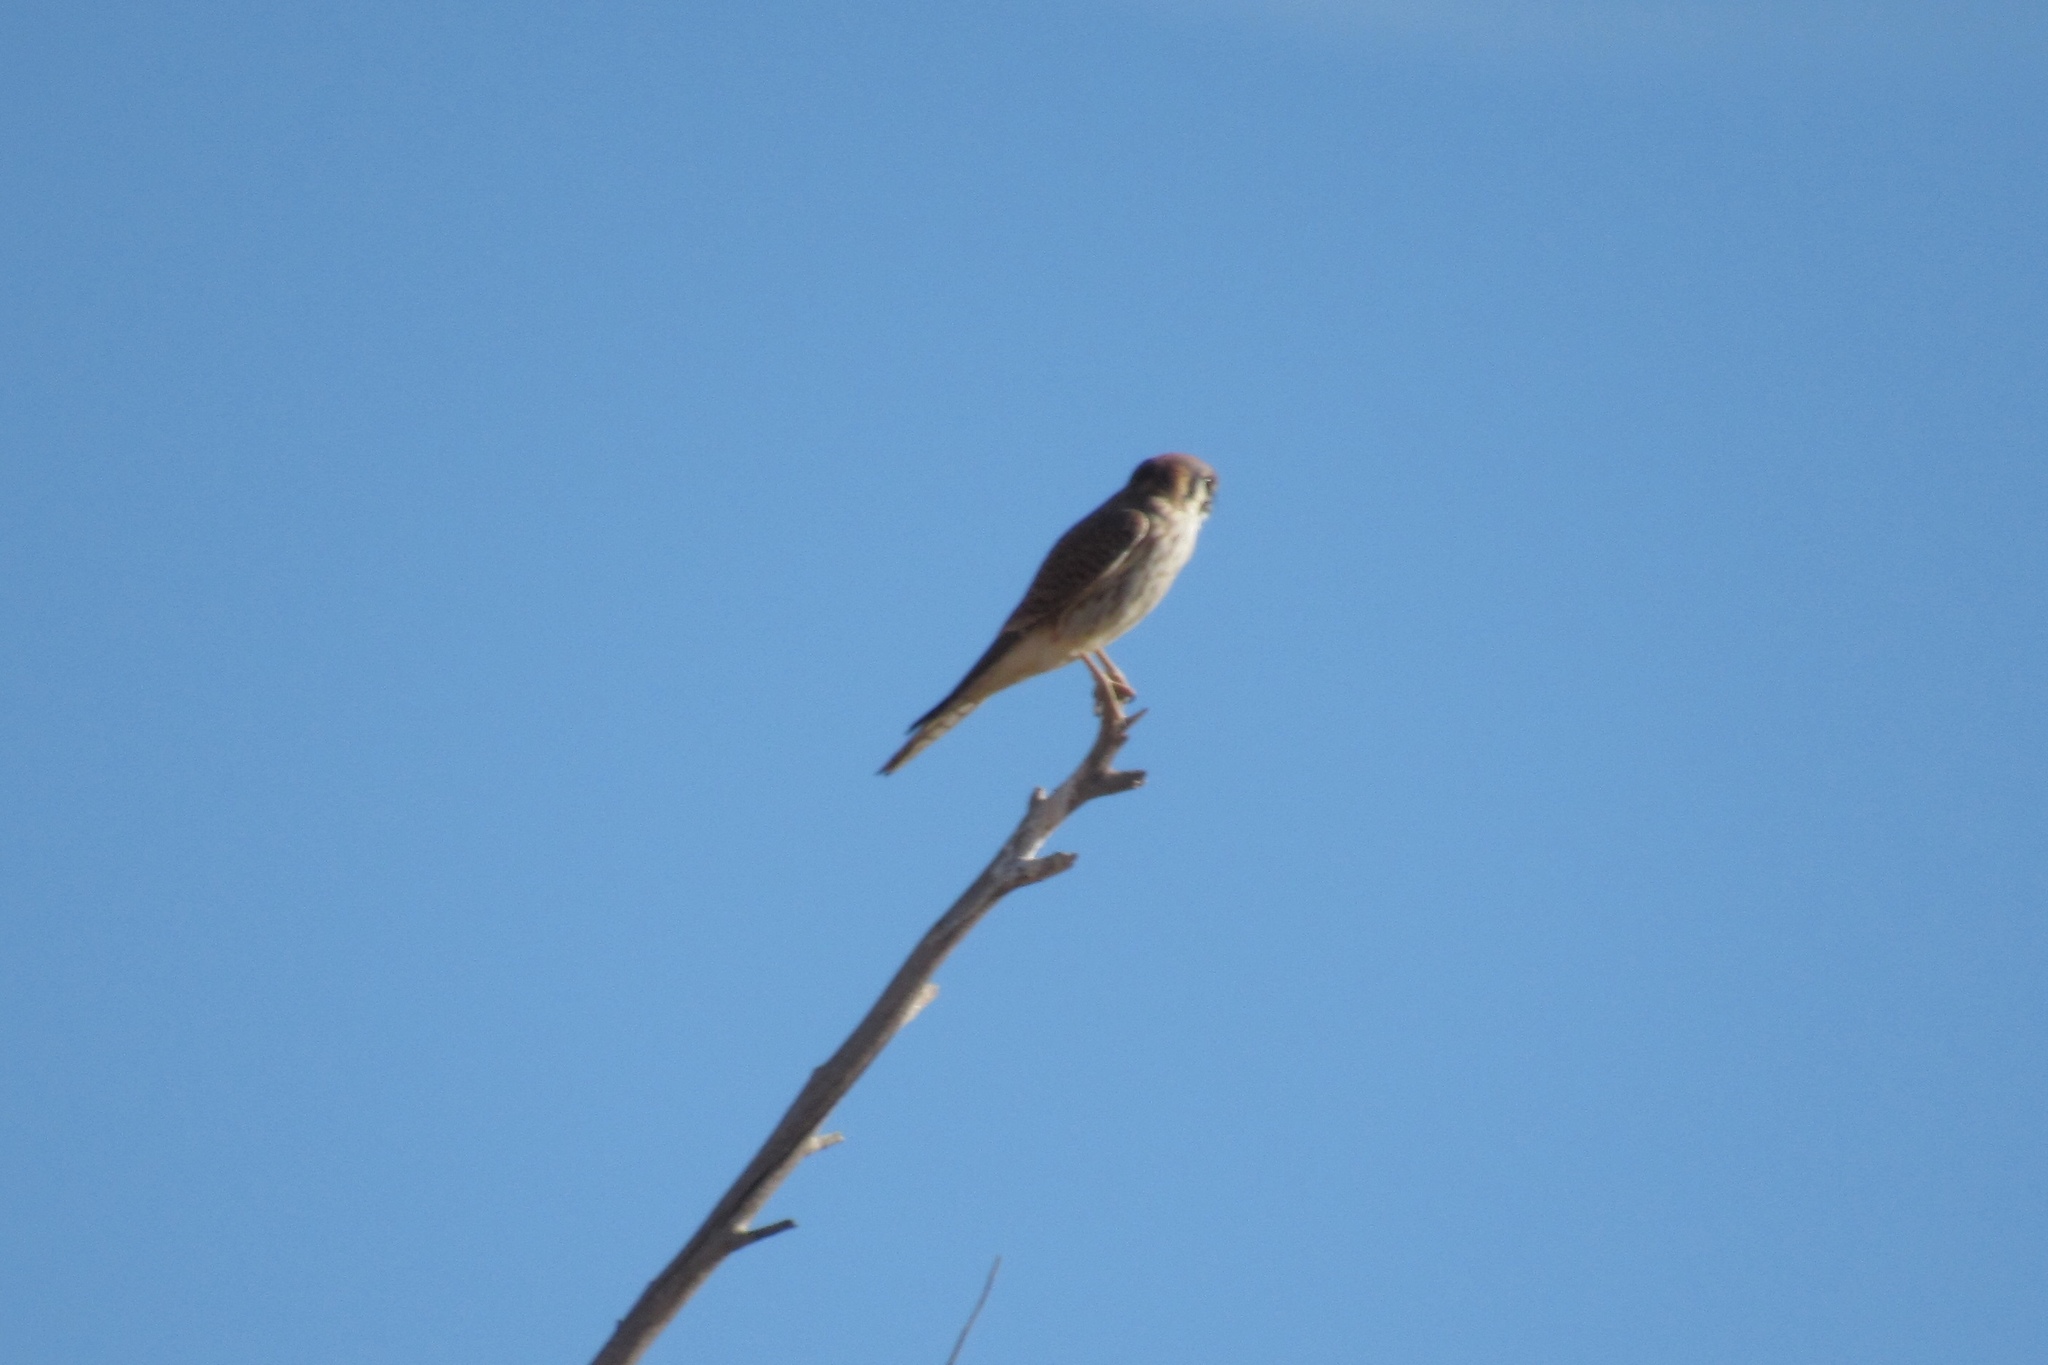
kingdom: Animalia
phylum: Chordata
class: Aves
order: Falconiformes
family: Falconidae
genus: Falco
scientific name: Falco sparverius
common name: American kestrel
